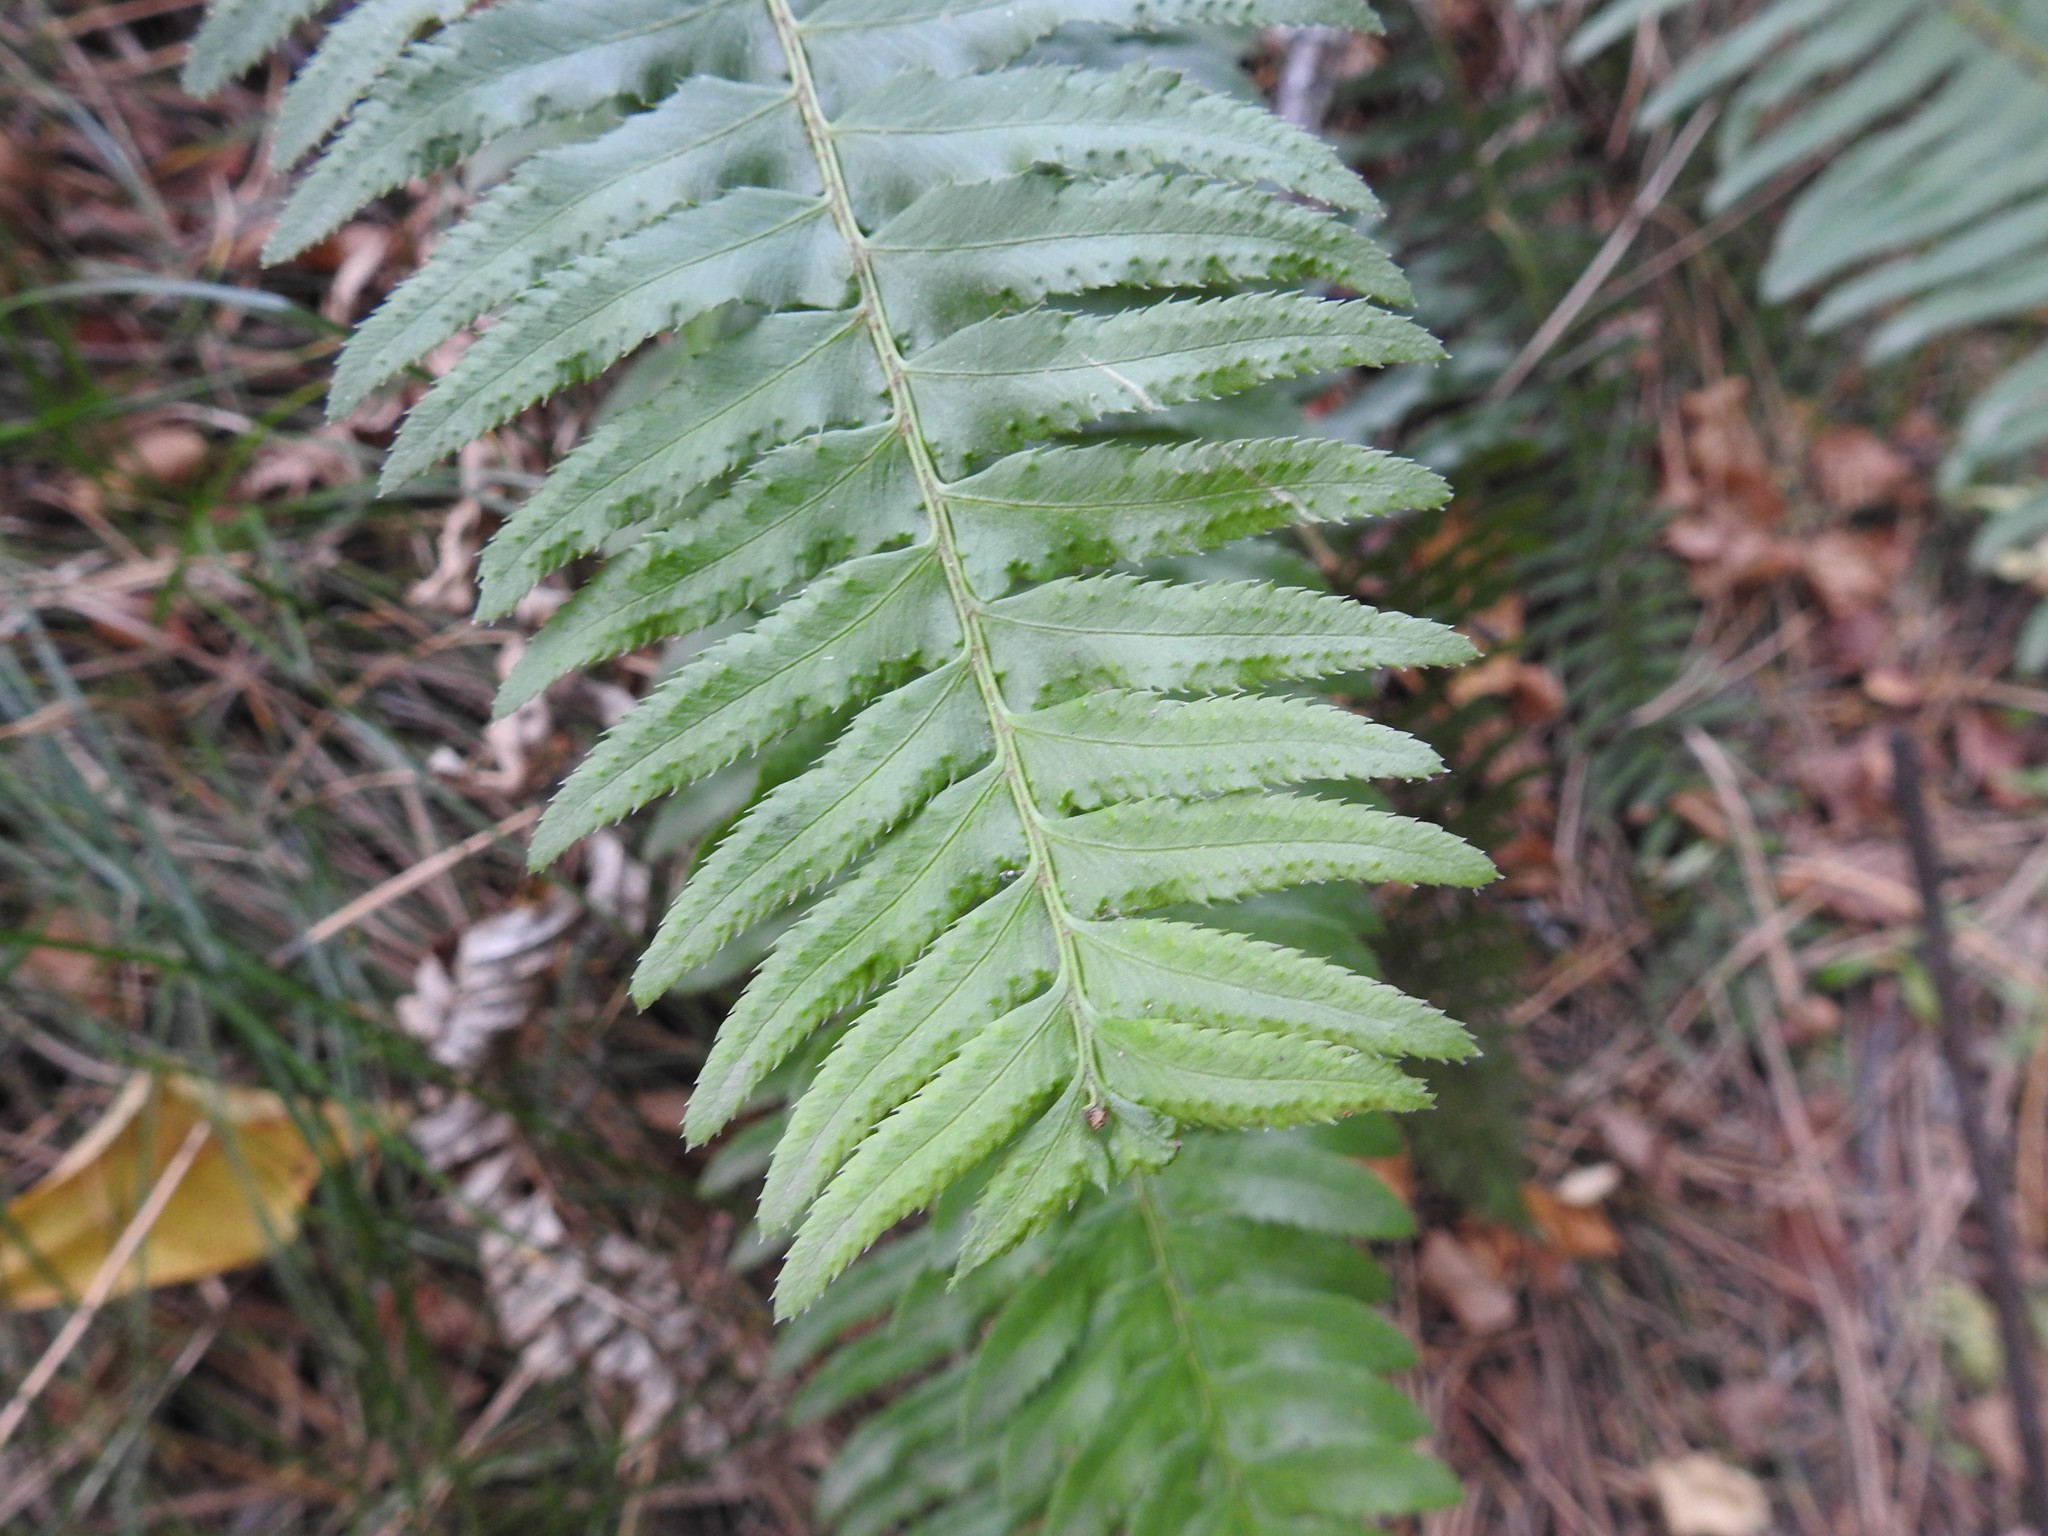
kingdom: Plantae
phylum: Tracheophyta
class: Polypodiopsida
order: Polypodiales
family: Dryopteridaceae
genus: Polystichum
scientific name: Polystichum munitum
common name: Western sword-fern
